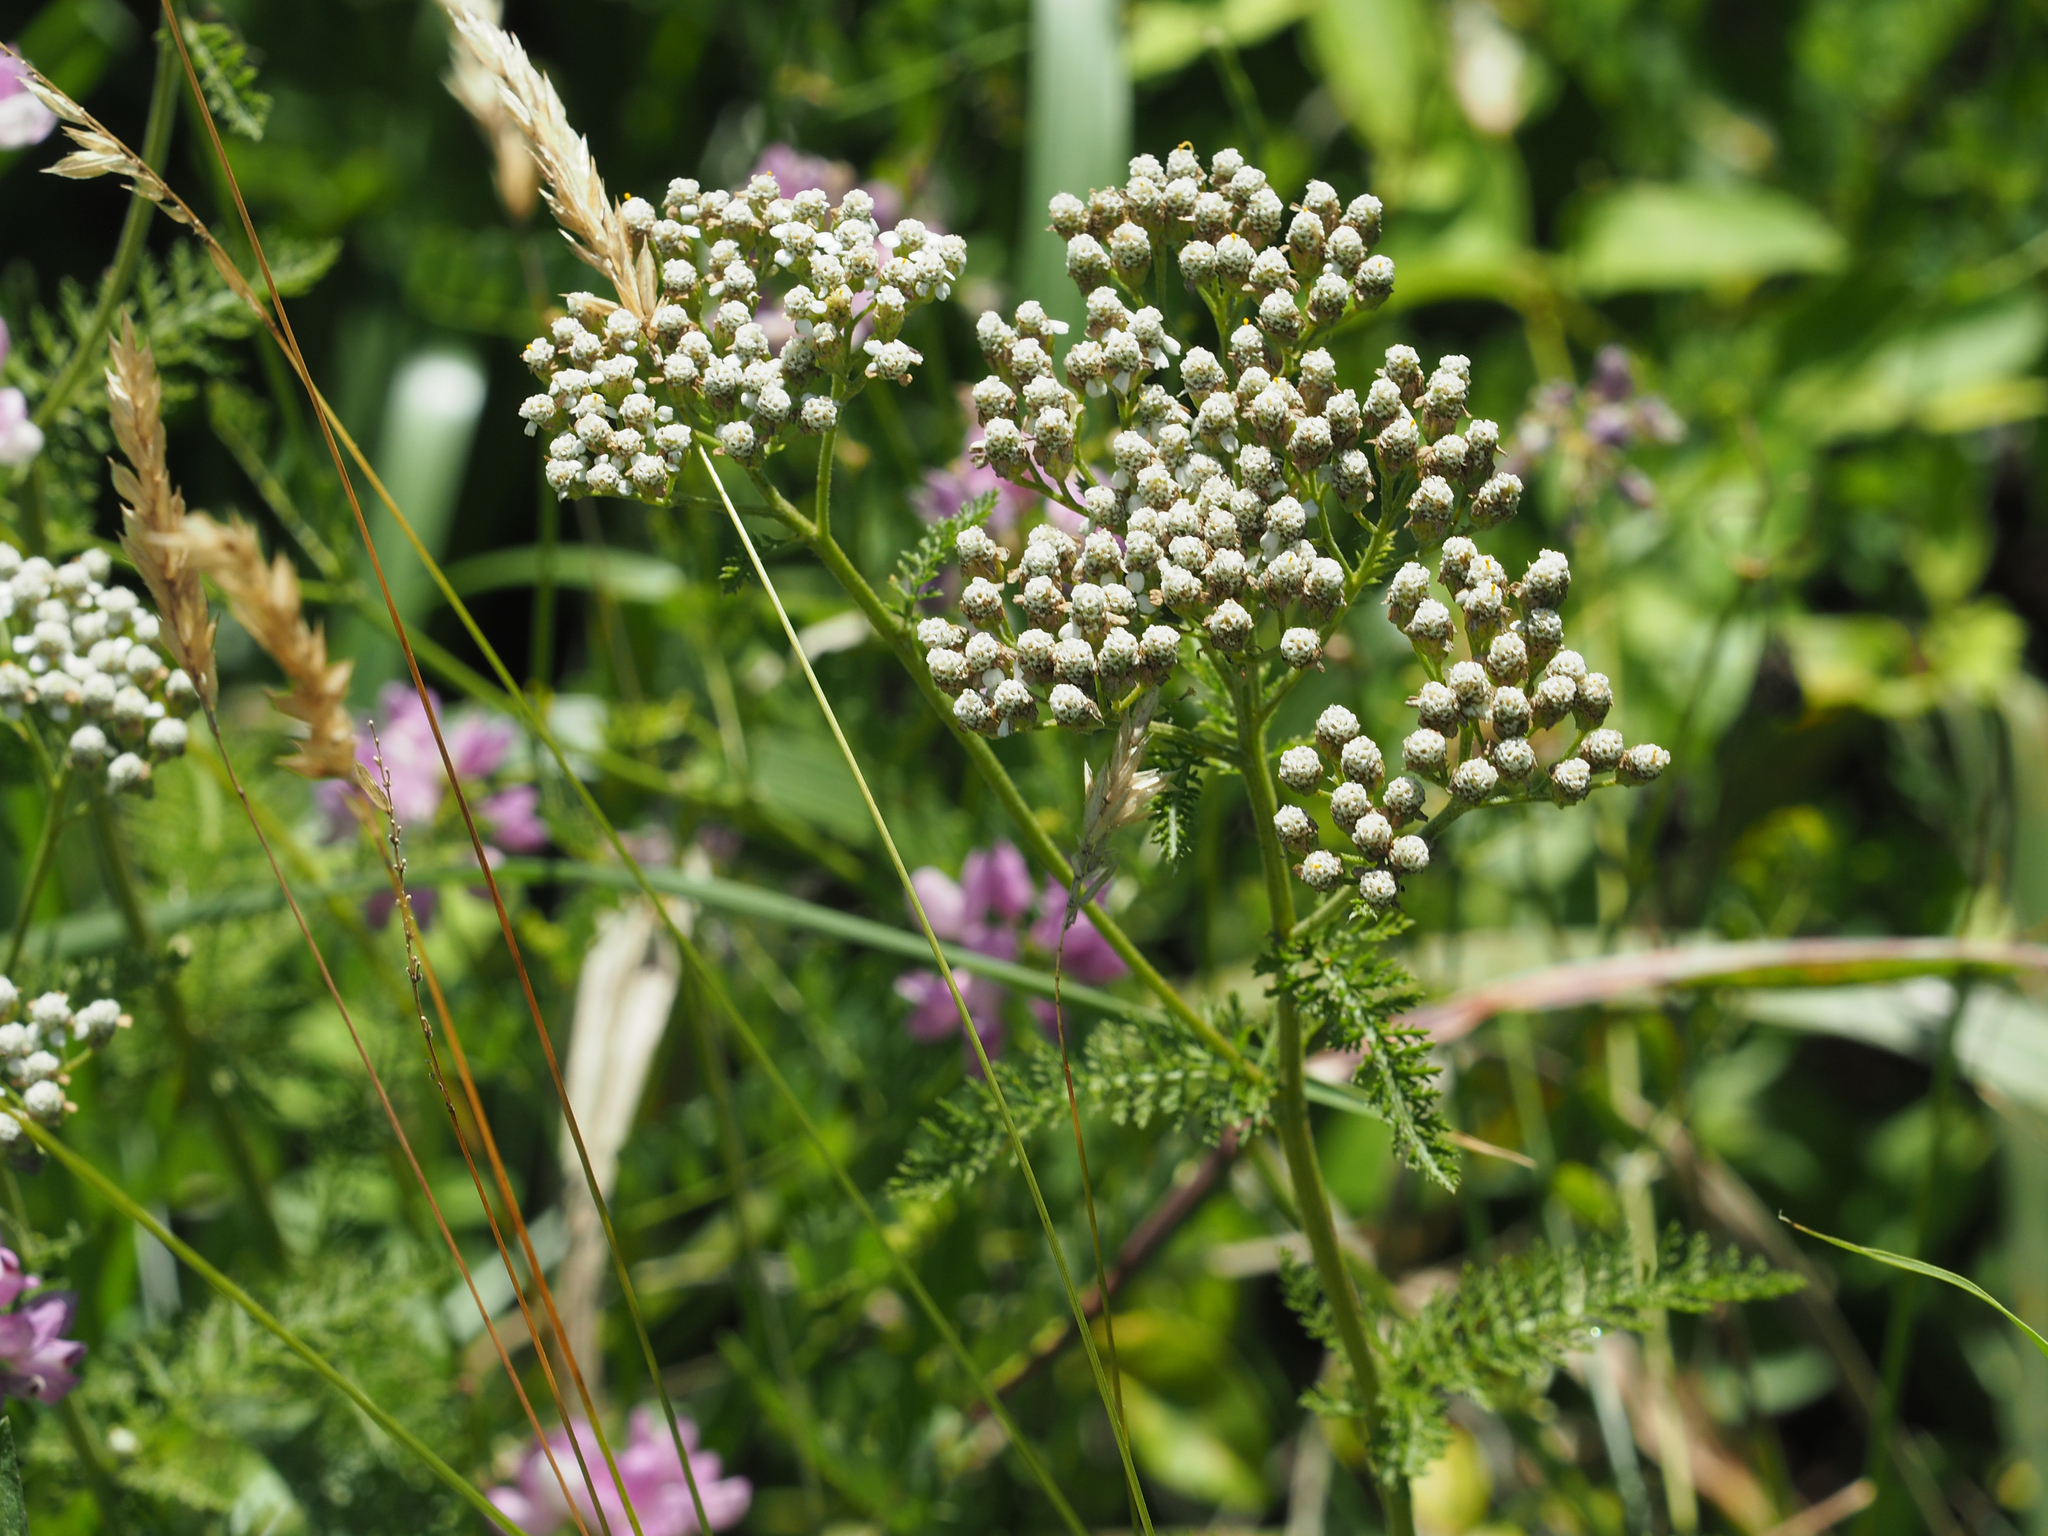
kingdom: Plantae
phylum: Tracheophyta
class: Magnoliopsida
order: Asterales
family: Asteraceae
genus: Achillea
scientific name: Achillea millefolium
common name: Yarrow
